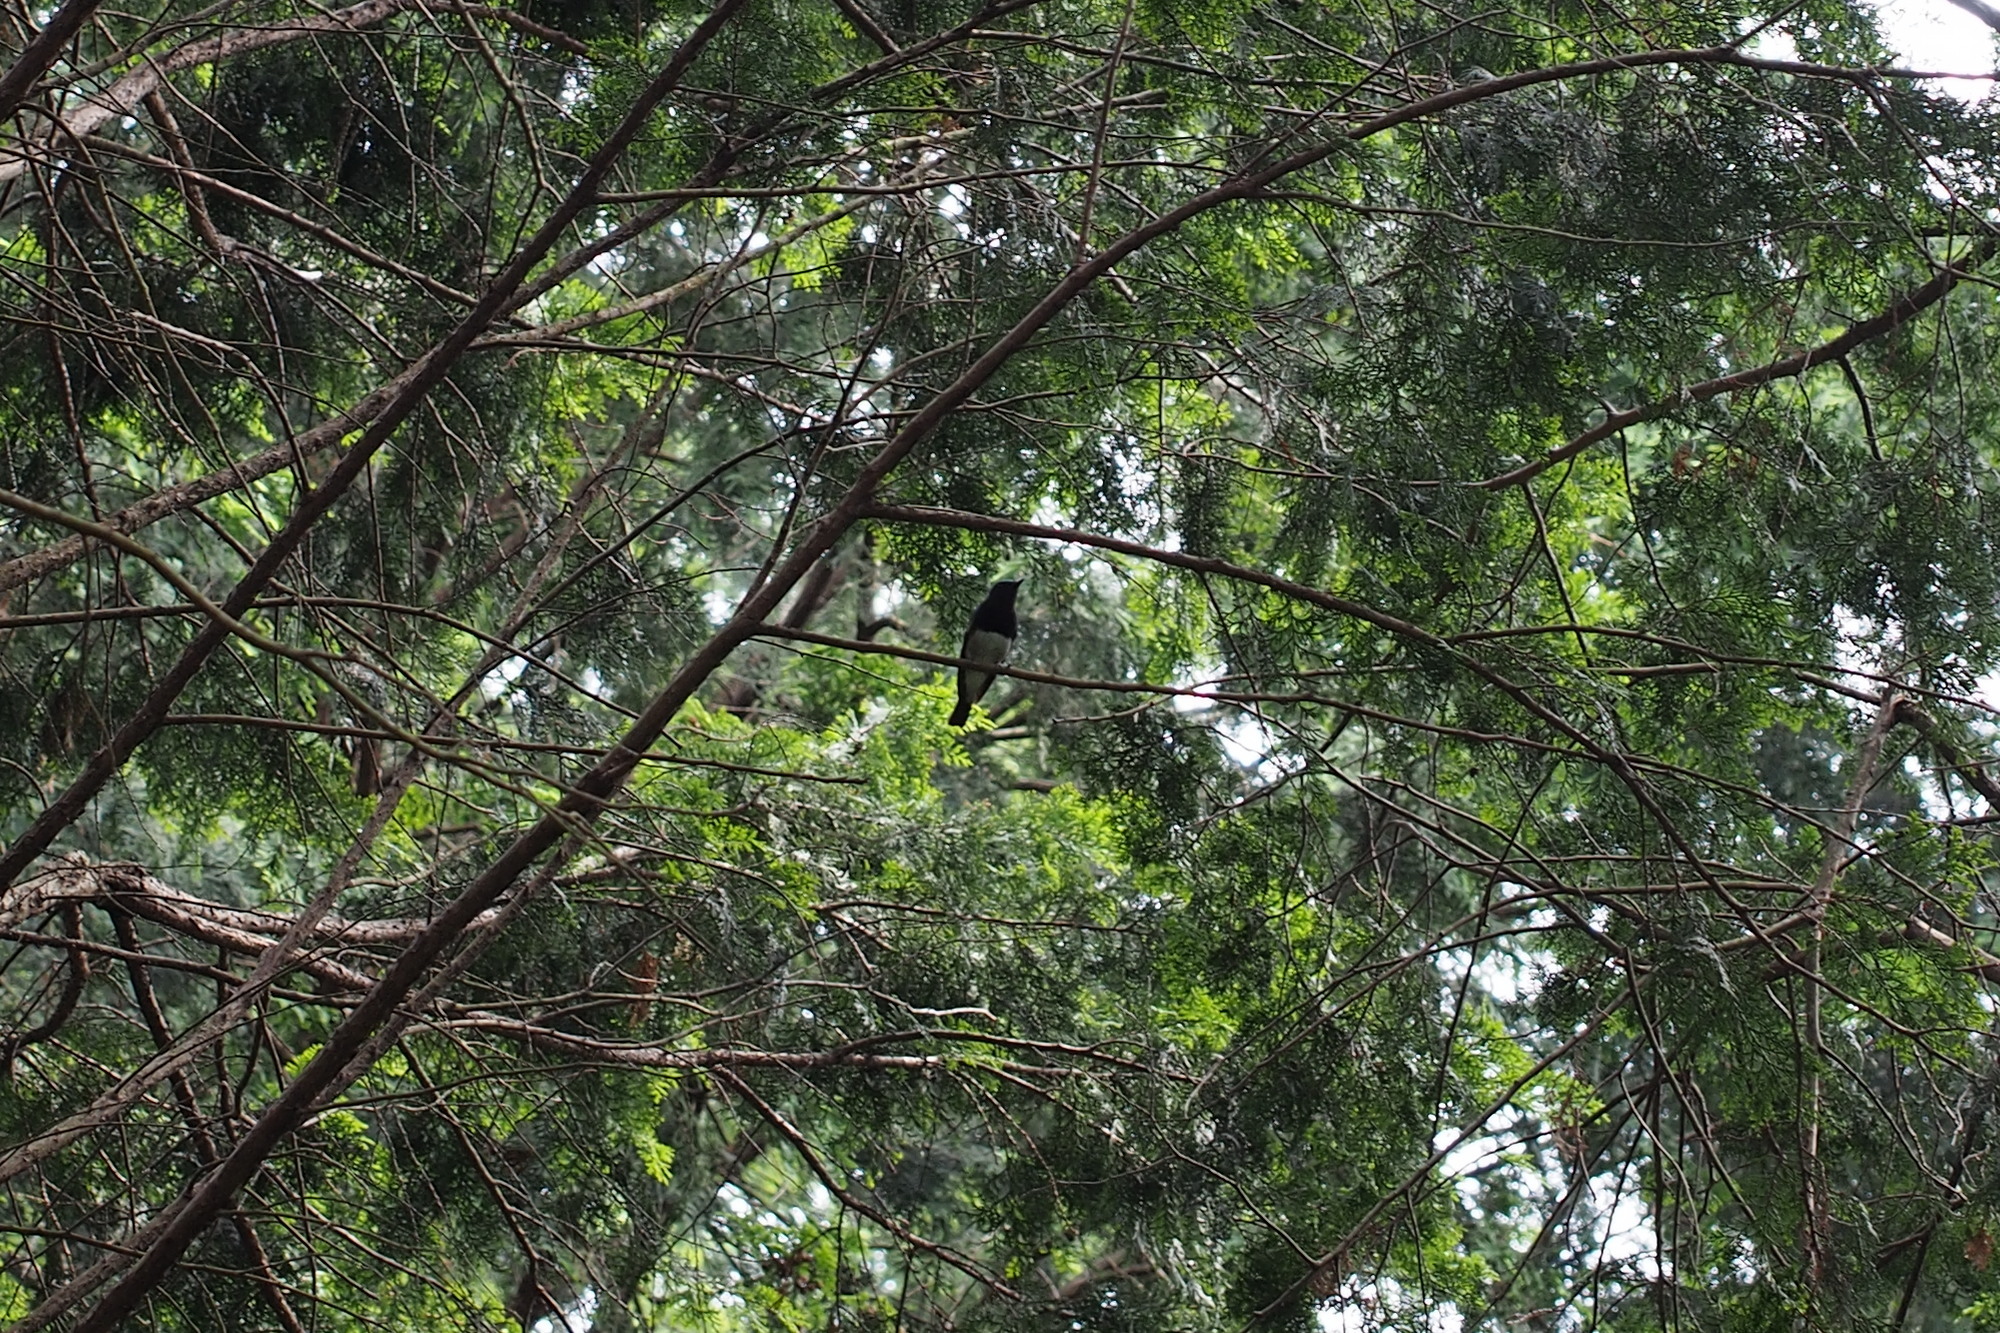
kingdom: Animalia
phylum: Chordata
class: Aves
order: Passeriformes
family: Muscicapidae
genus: Cyanoptila
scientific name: Cyanoptila cyanomelana
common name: Blue-and-white flycatcher
